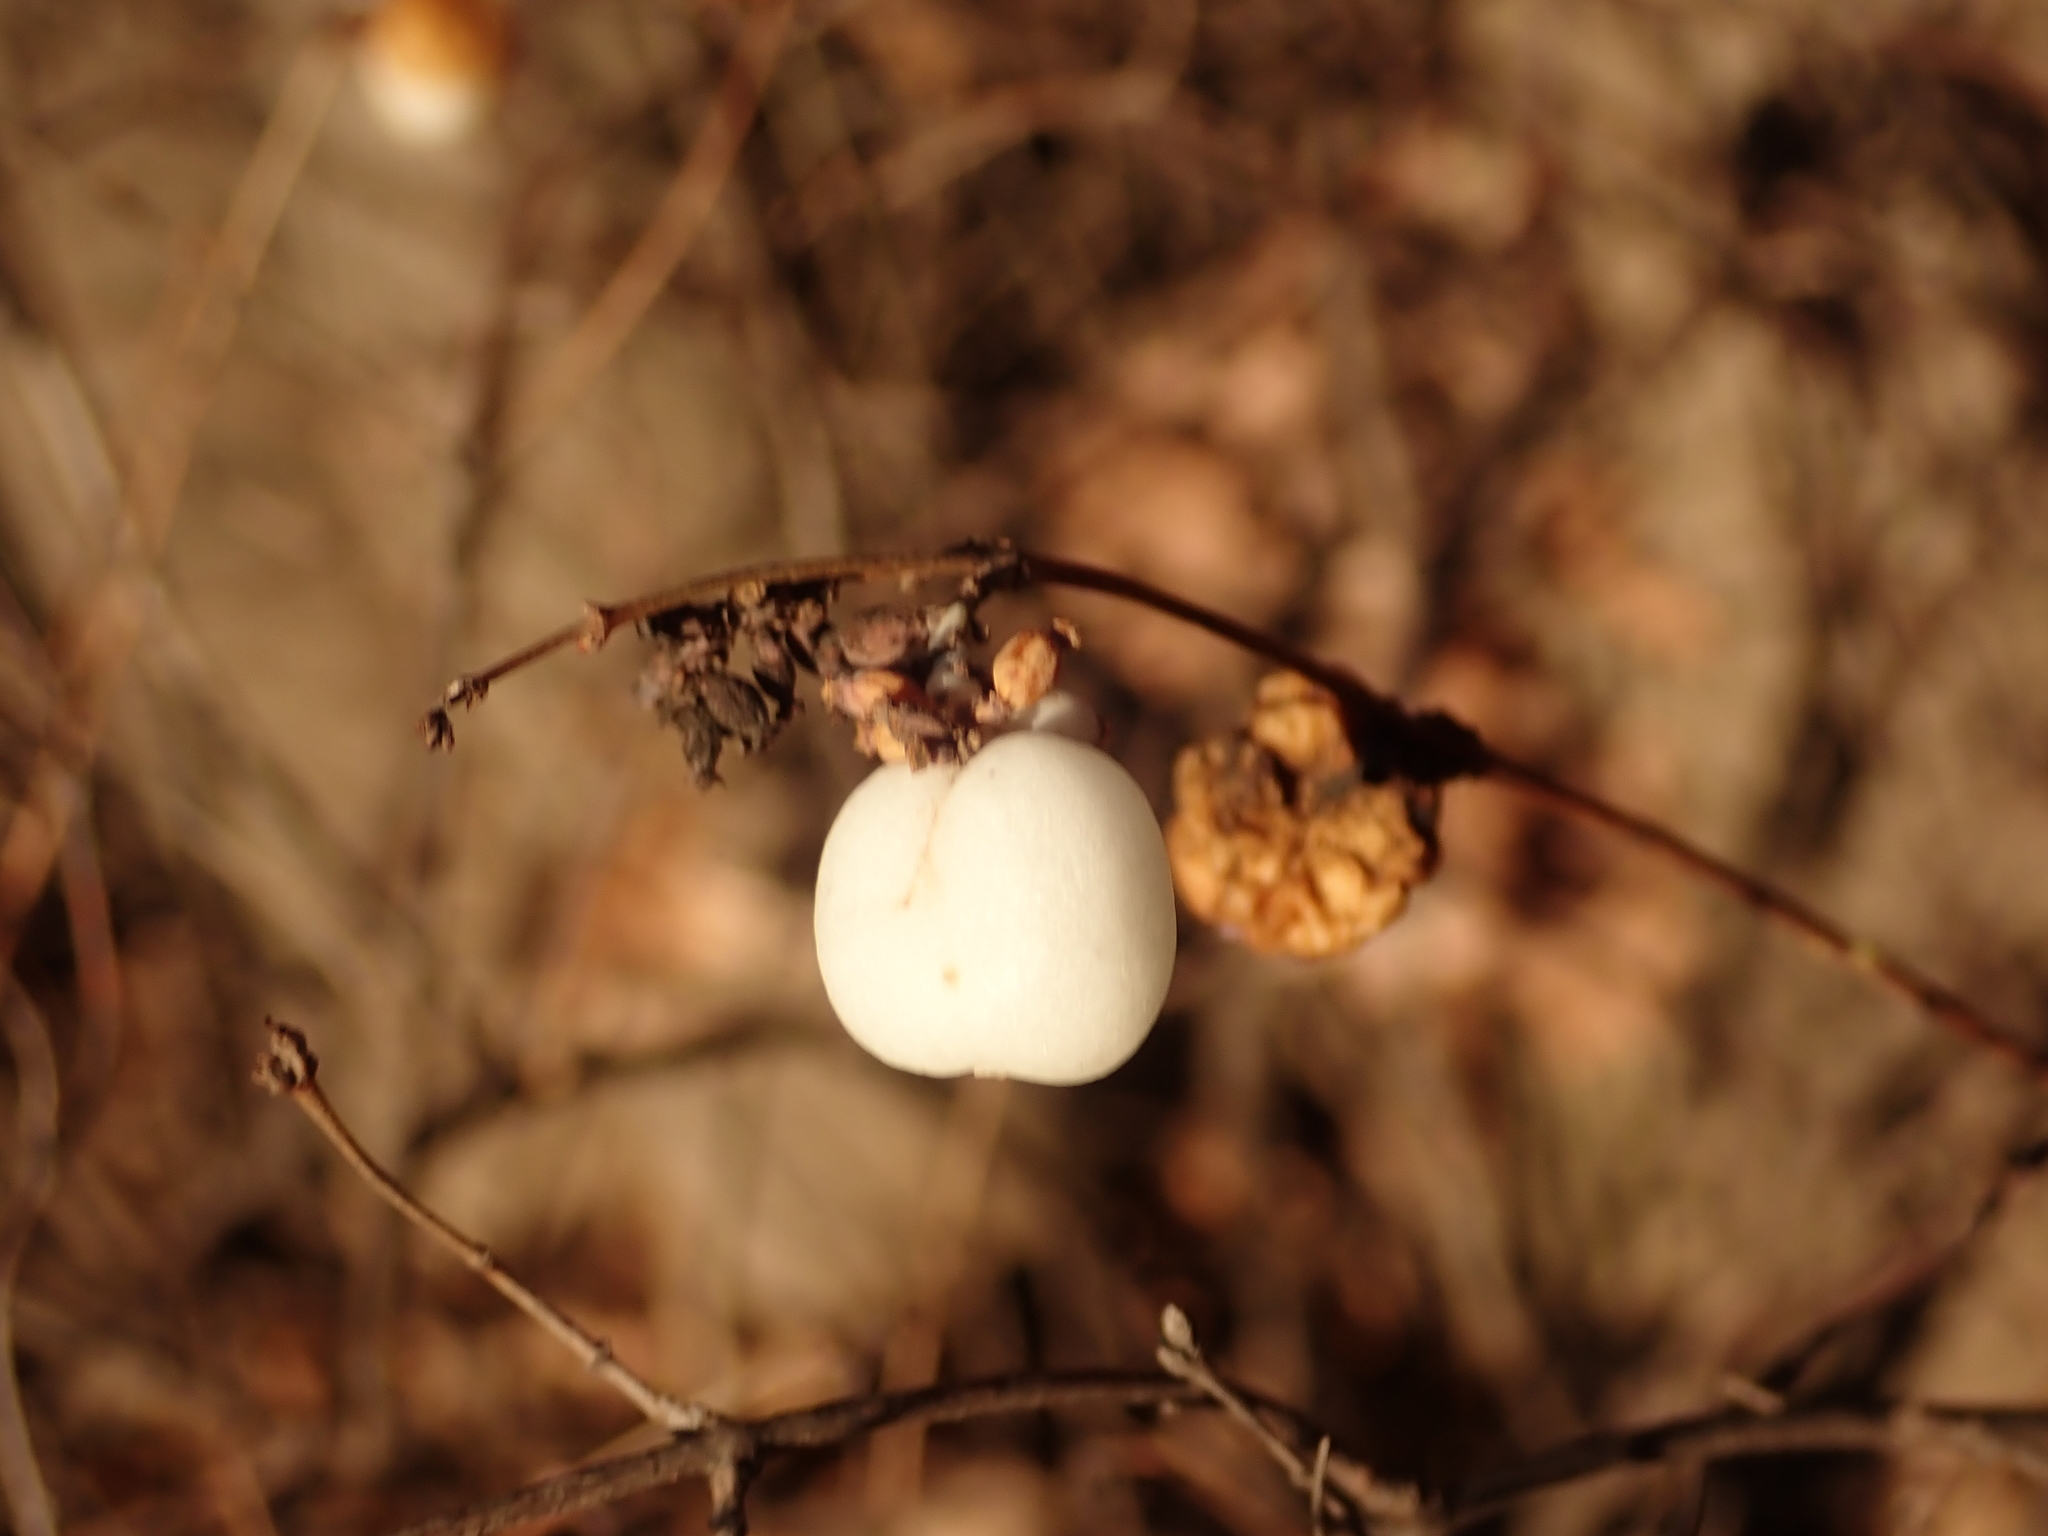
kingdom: Plantae
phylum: Tracheophyta
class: Magnoliopsida
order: Dipsacales
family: Caprifoliaceae
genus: Symphoricarpos
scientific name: Symphoricarpos albus
